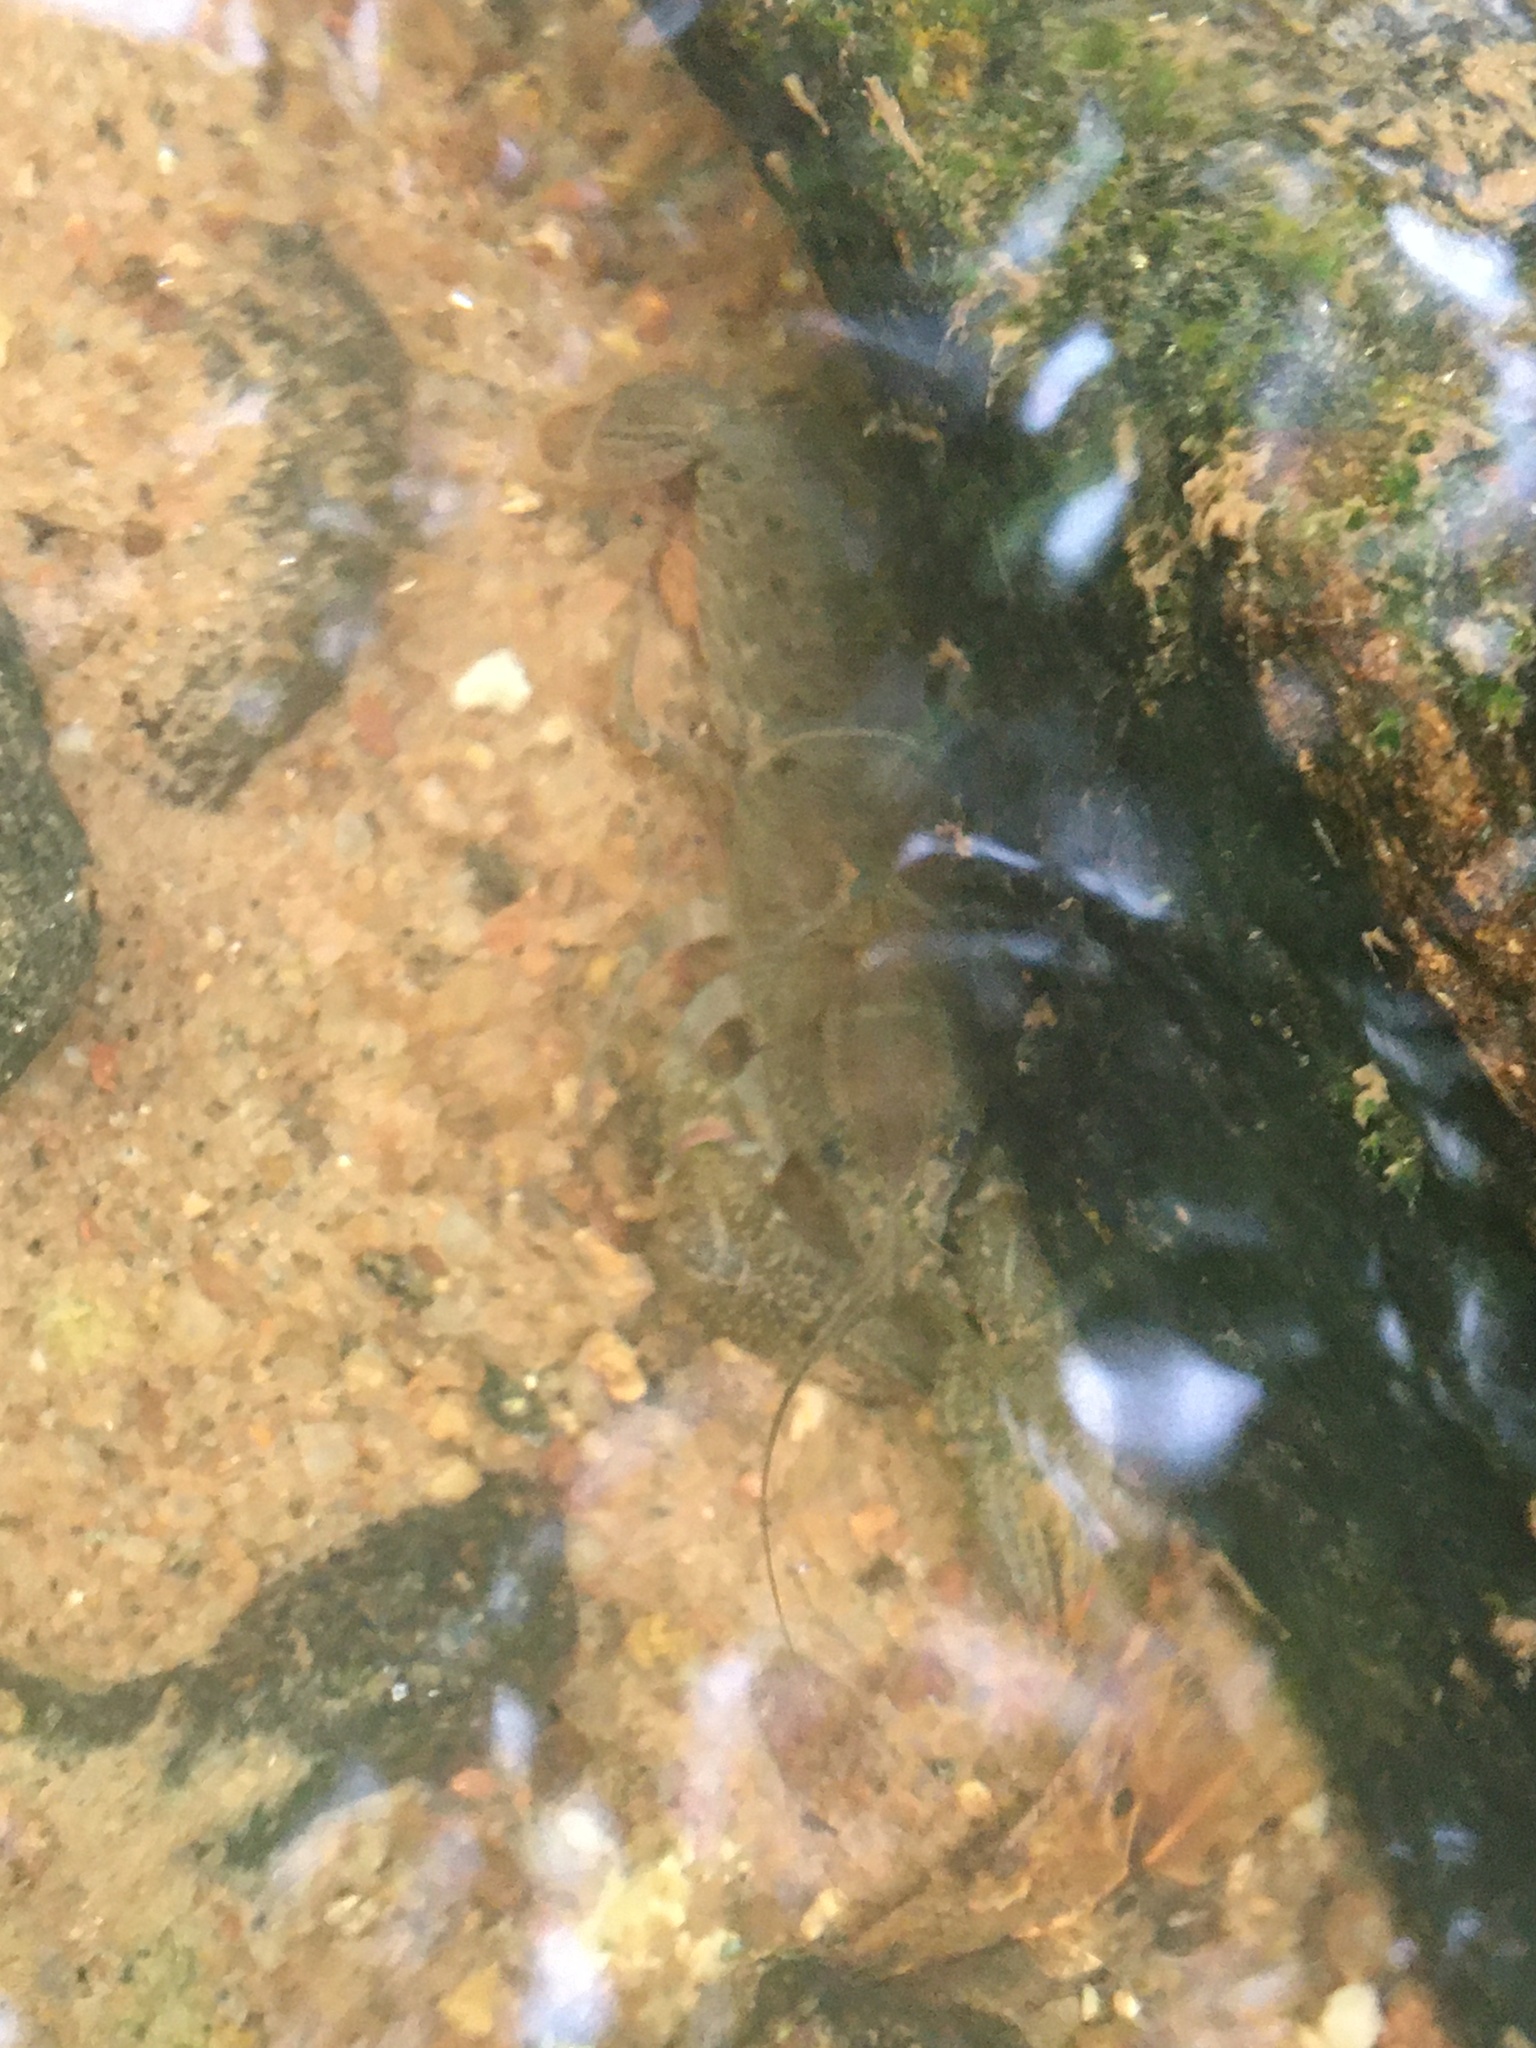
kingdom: Animalia
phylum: Arthropoda
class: Malacostraca
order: Decapoda
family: Cambaridae
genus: Cambarus
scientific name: Cambarus latimanus
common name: Variable crayfish
